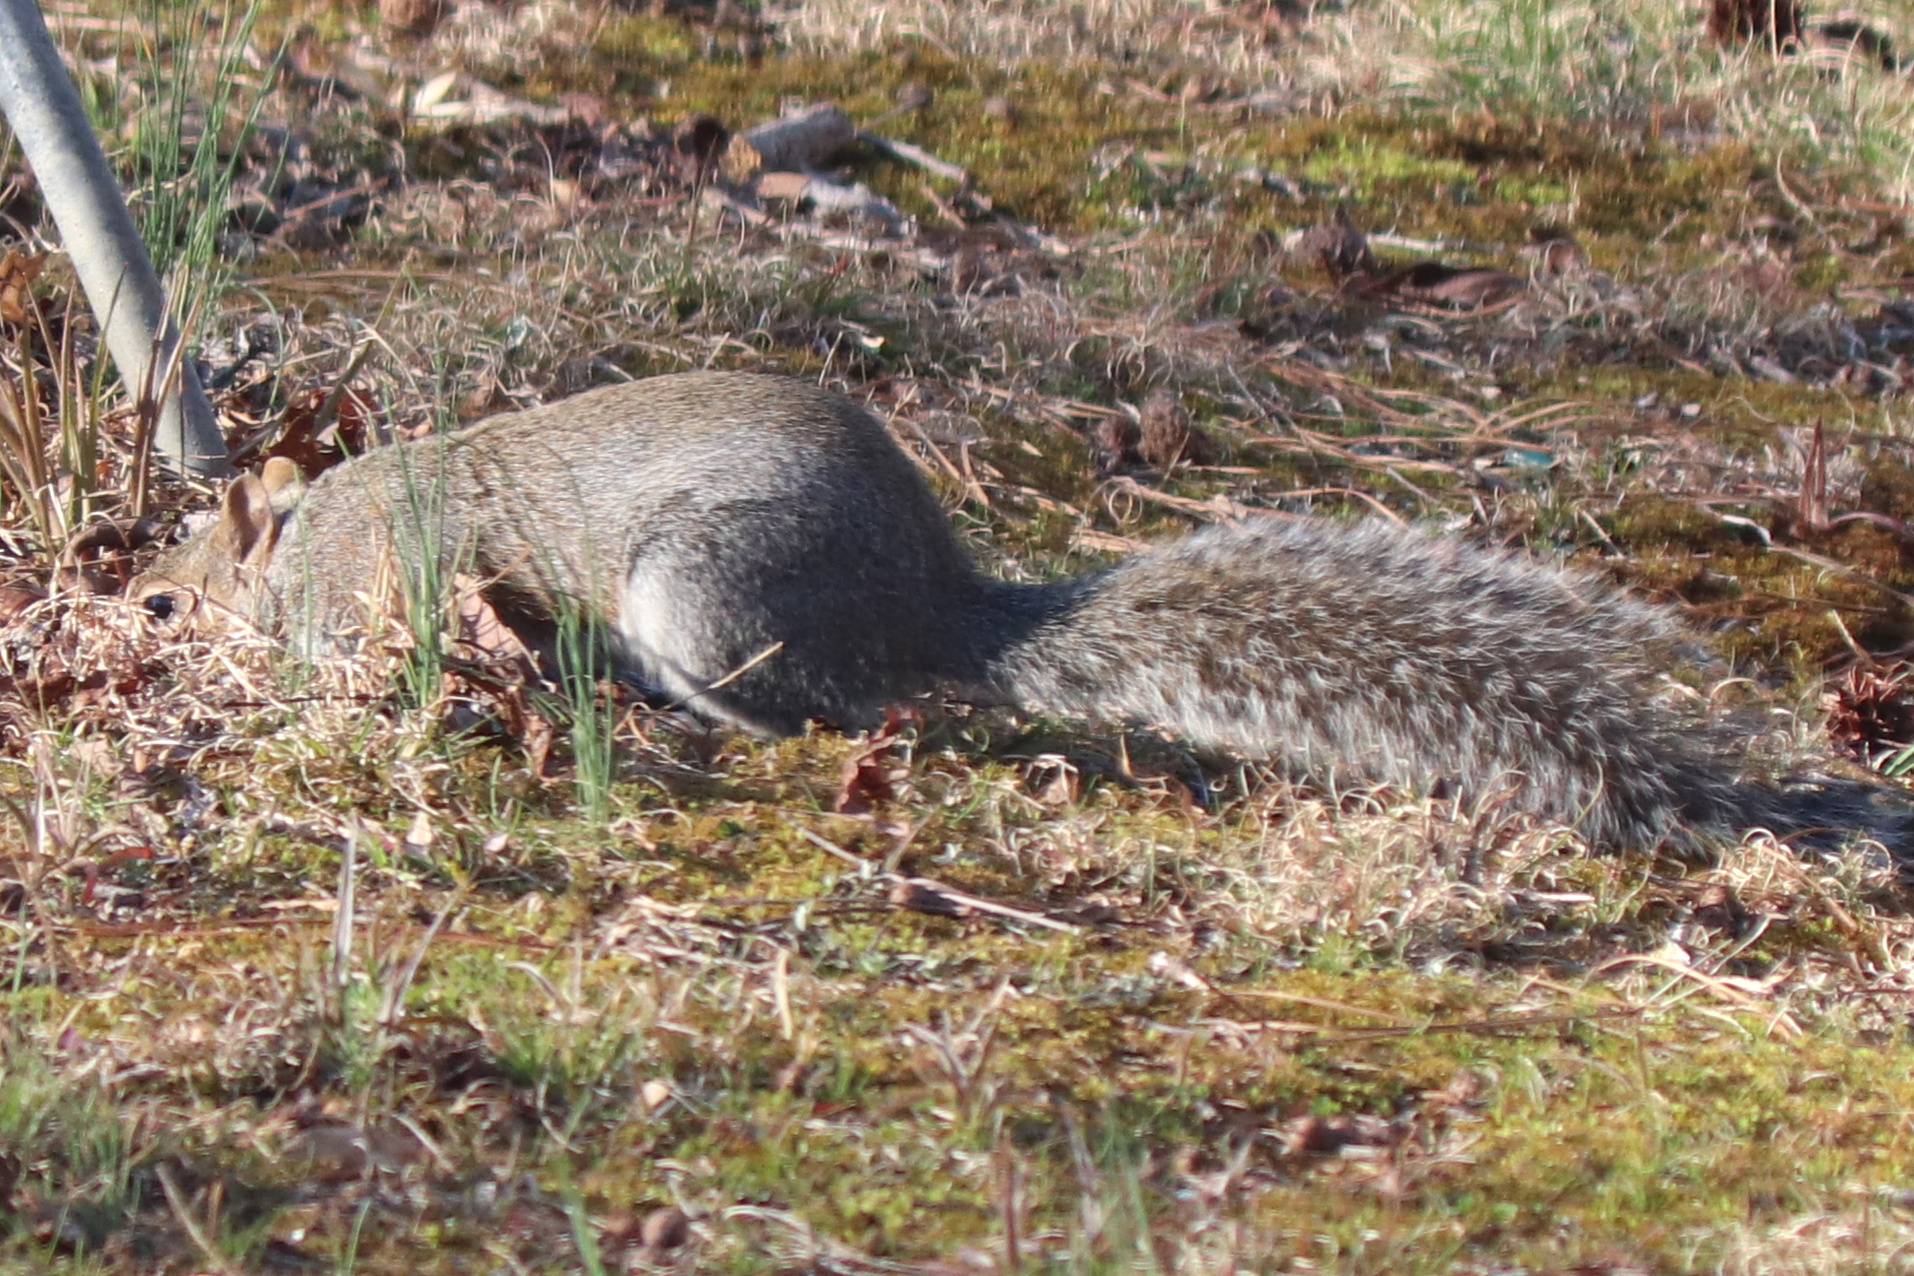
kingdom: Animalia
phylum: Chordata
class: Mammalia
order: Rodentia
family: Sciuridae
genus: Sciurus
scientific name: Sciurus carolinensis
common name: Eastern gray squirrel
